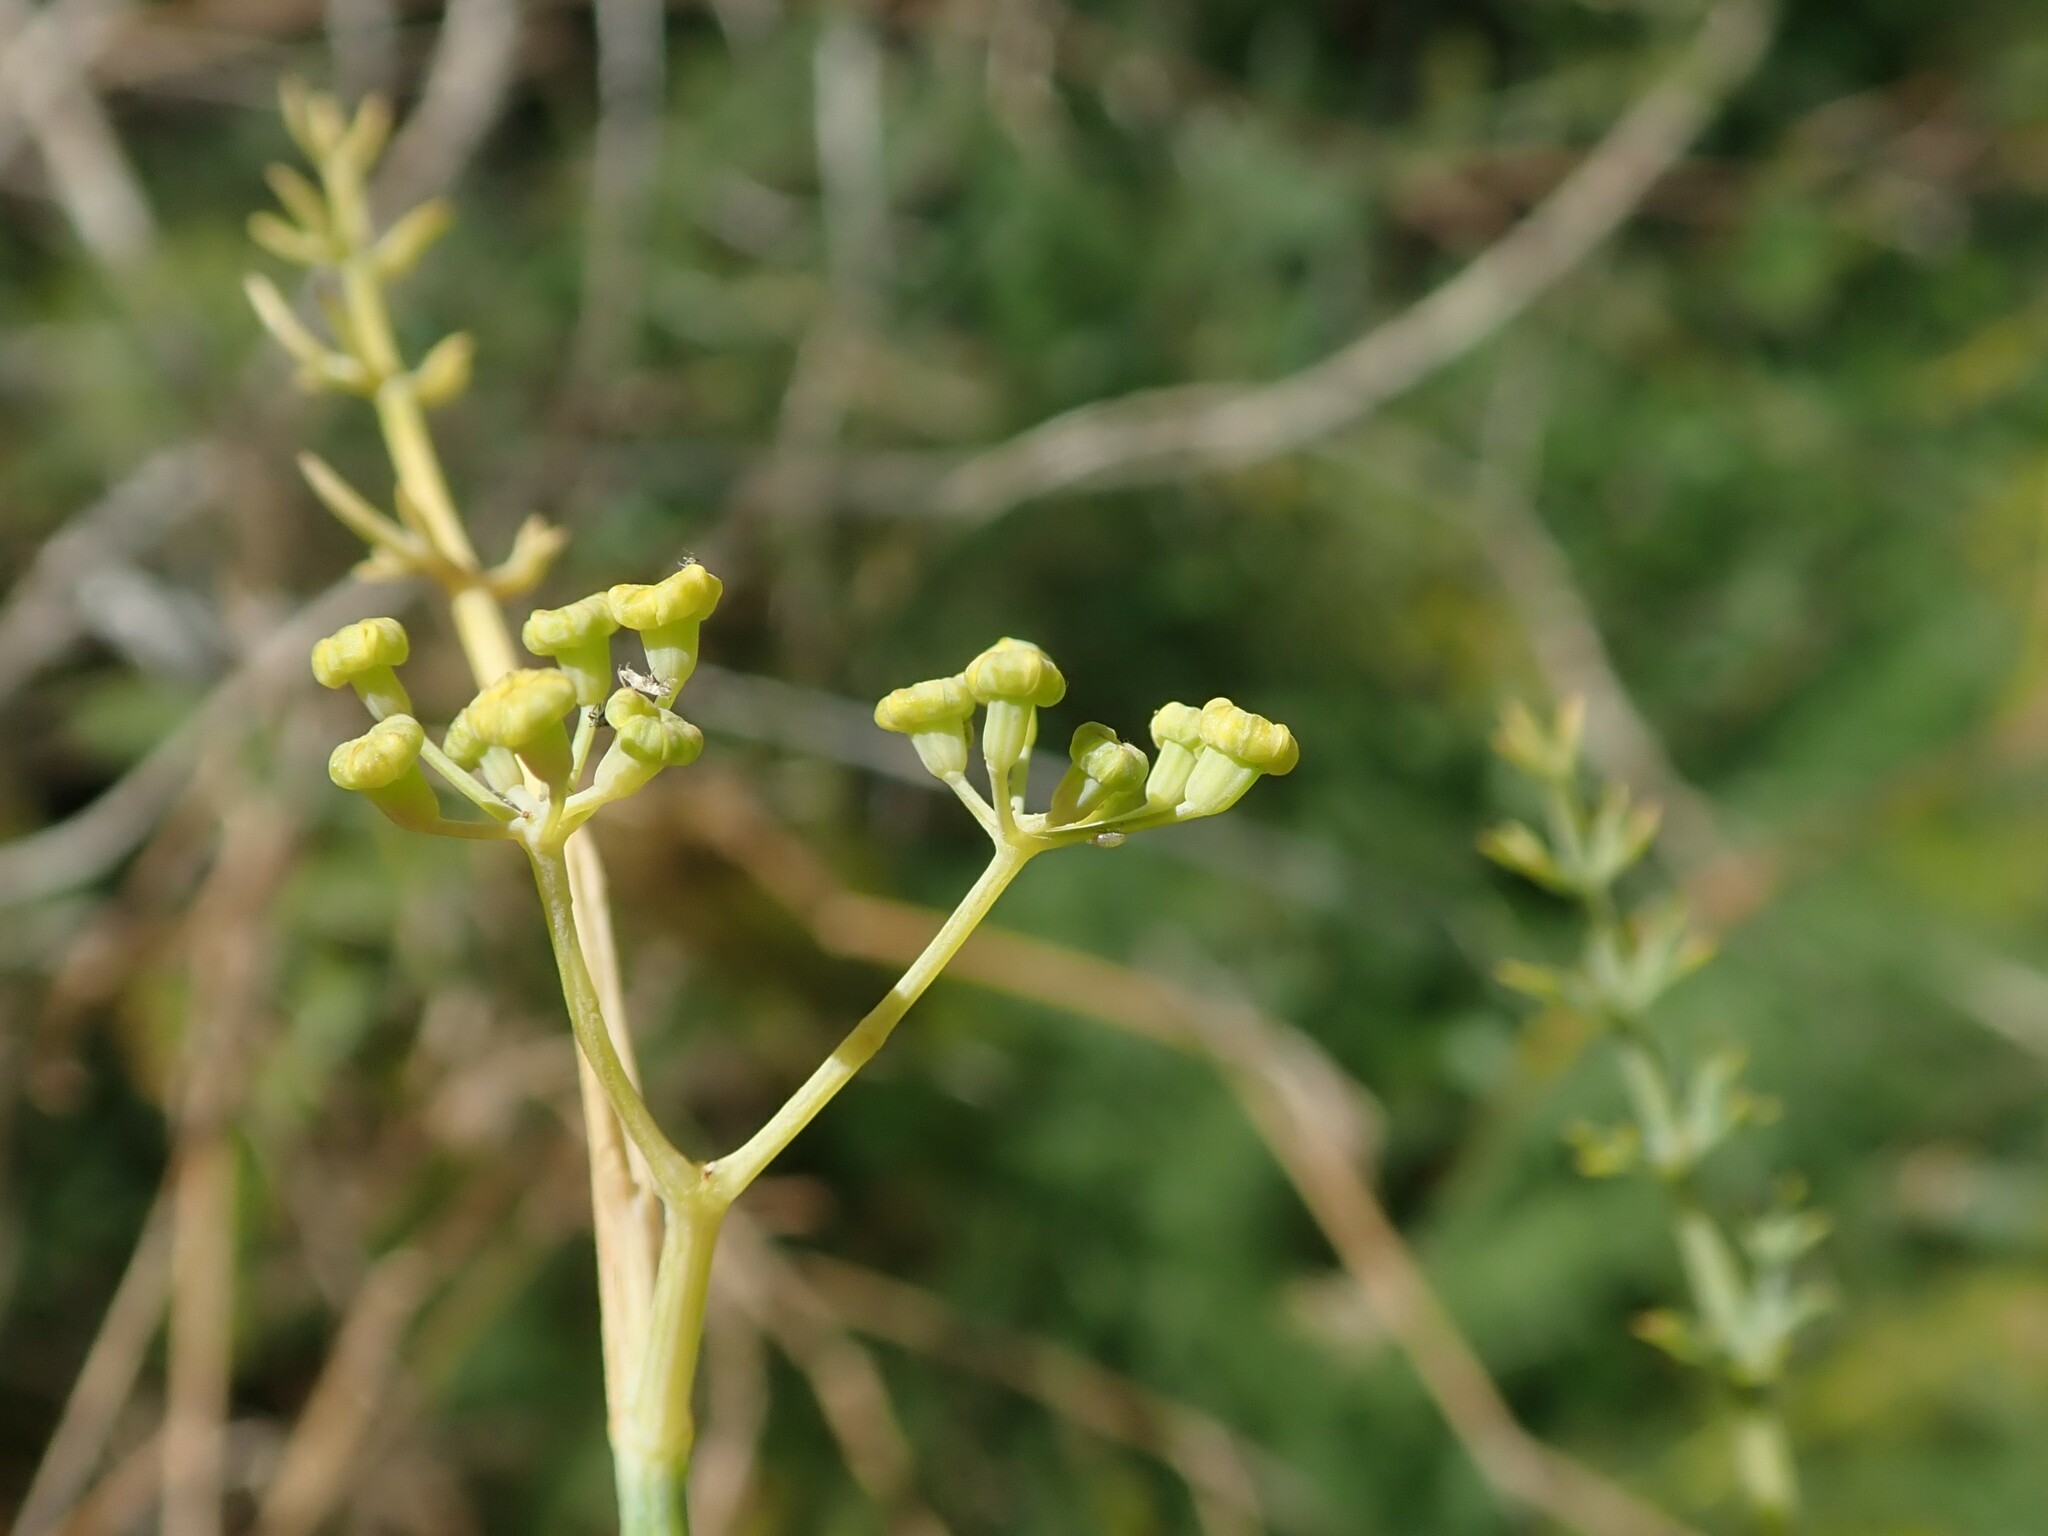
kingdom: Plantae
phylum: Tracheophyta
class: Magnoliopsida
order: Apiales
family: Apiaceae
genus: Foeniculum
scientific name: Foeniculum vulgare
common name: Fennel
